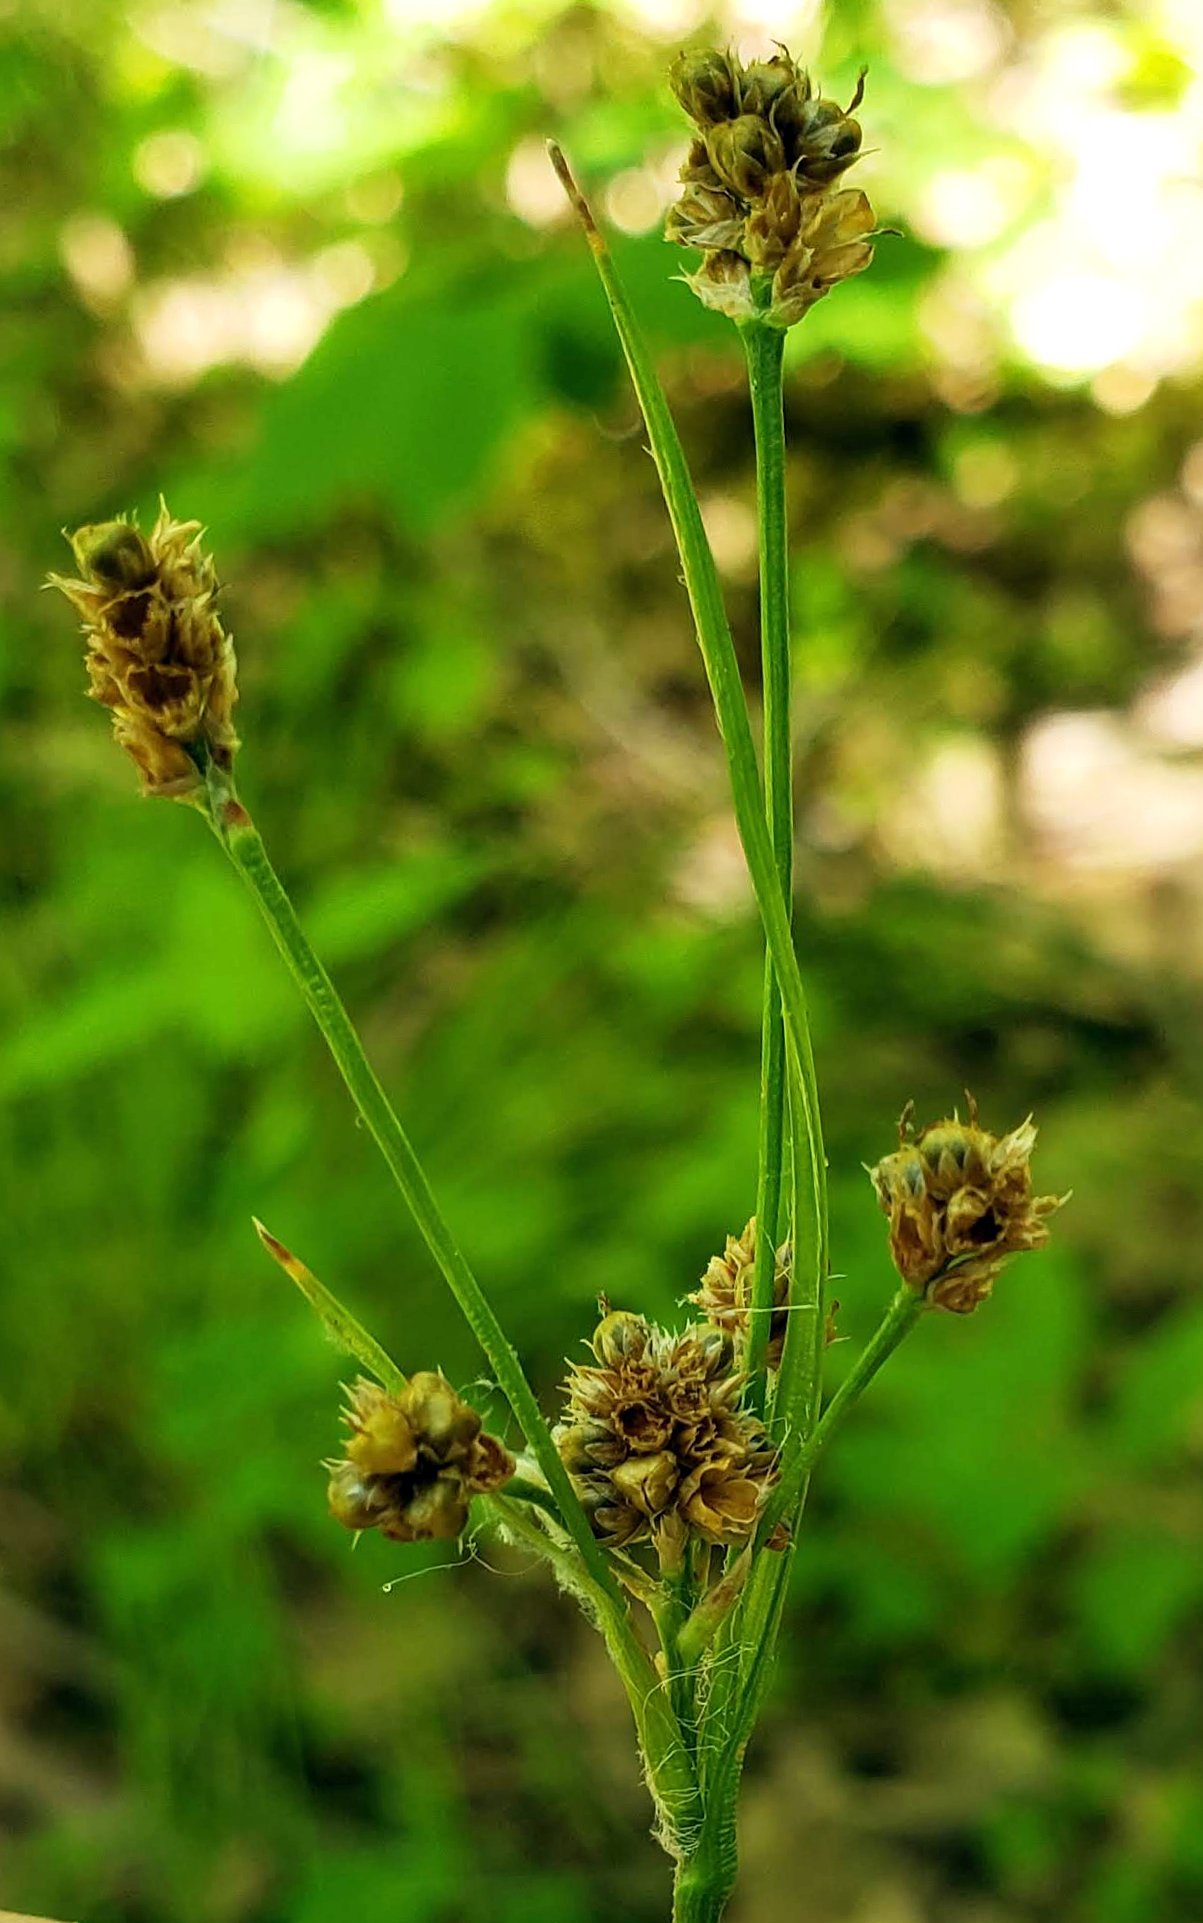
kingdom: Plantae
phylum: Tracheophyta
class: Liliopsida
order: Poales
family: Juncaceae
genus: Luzula
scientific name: Luzula multiflora
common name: Heath wood-rush
